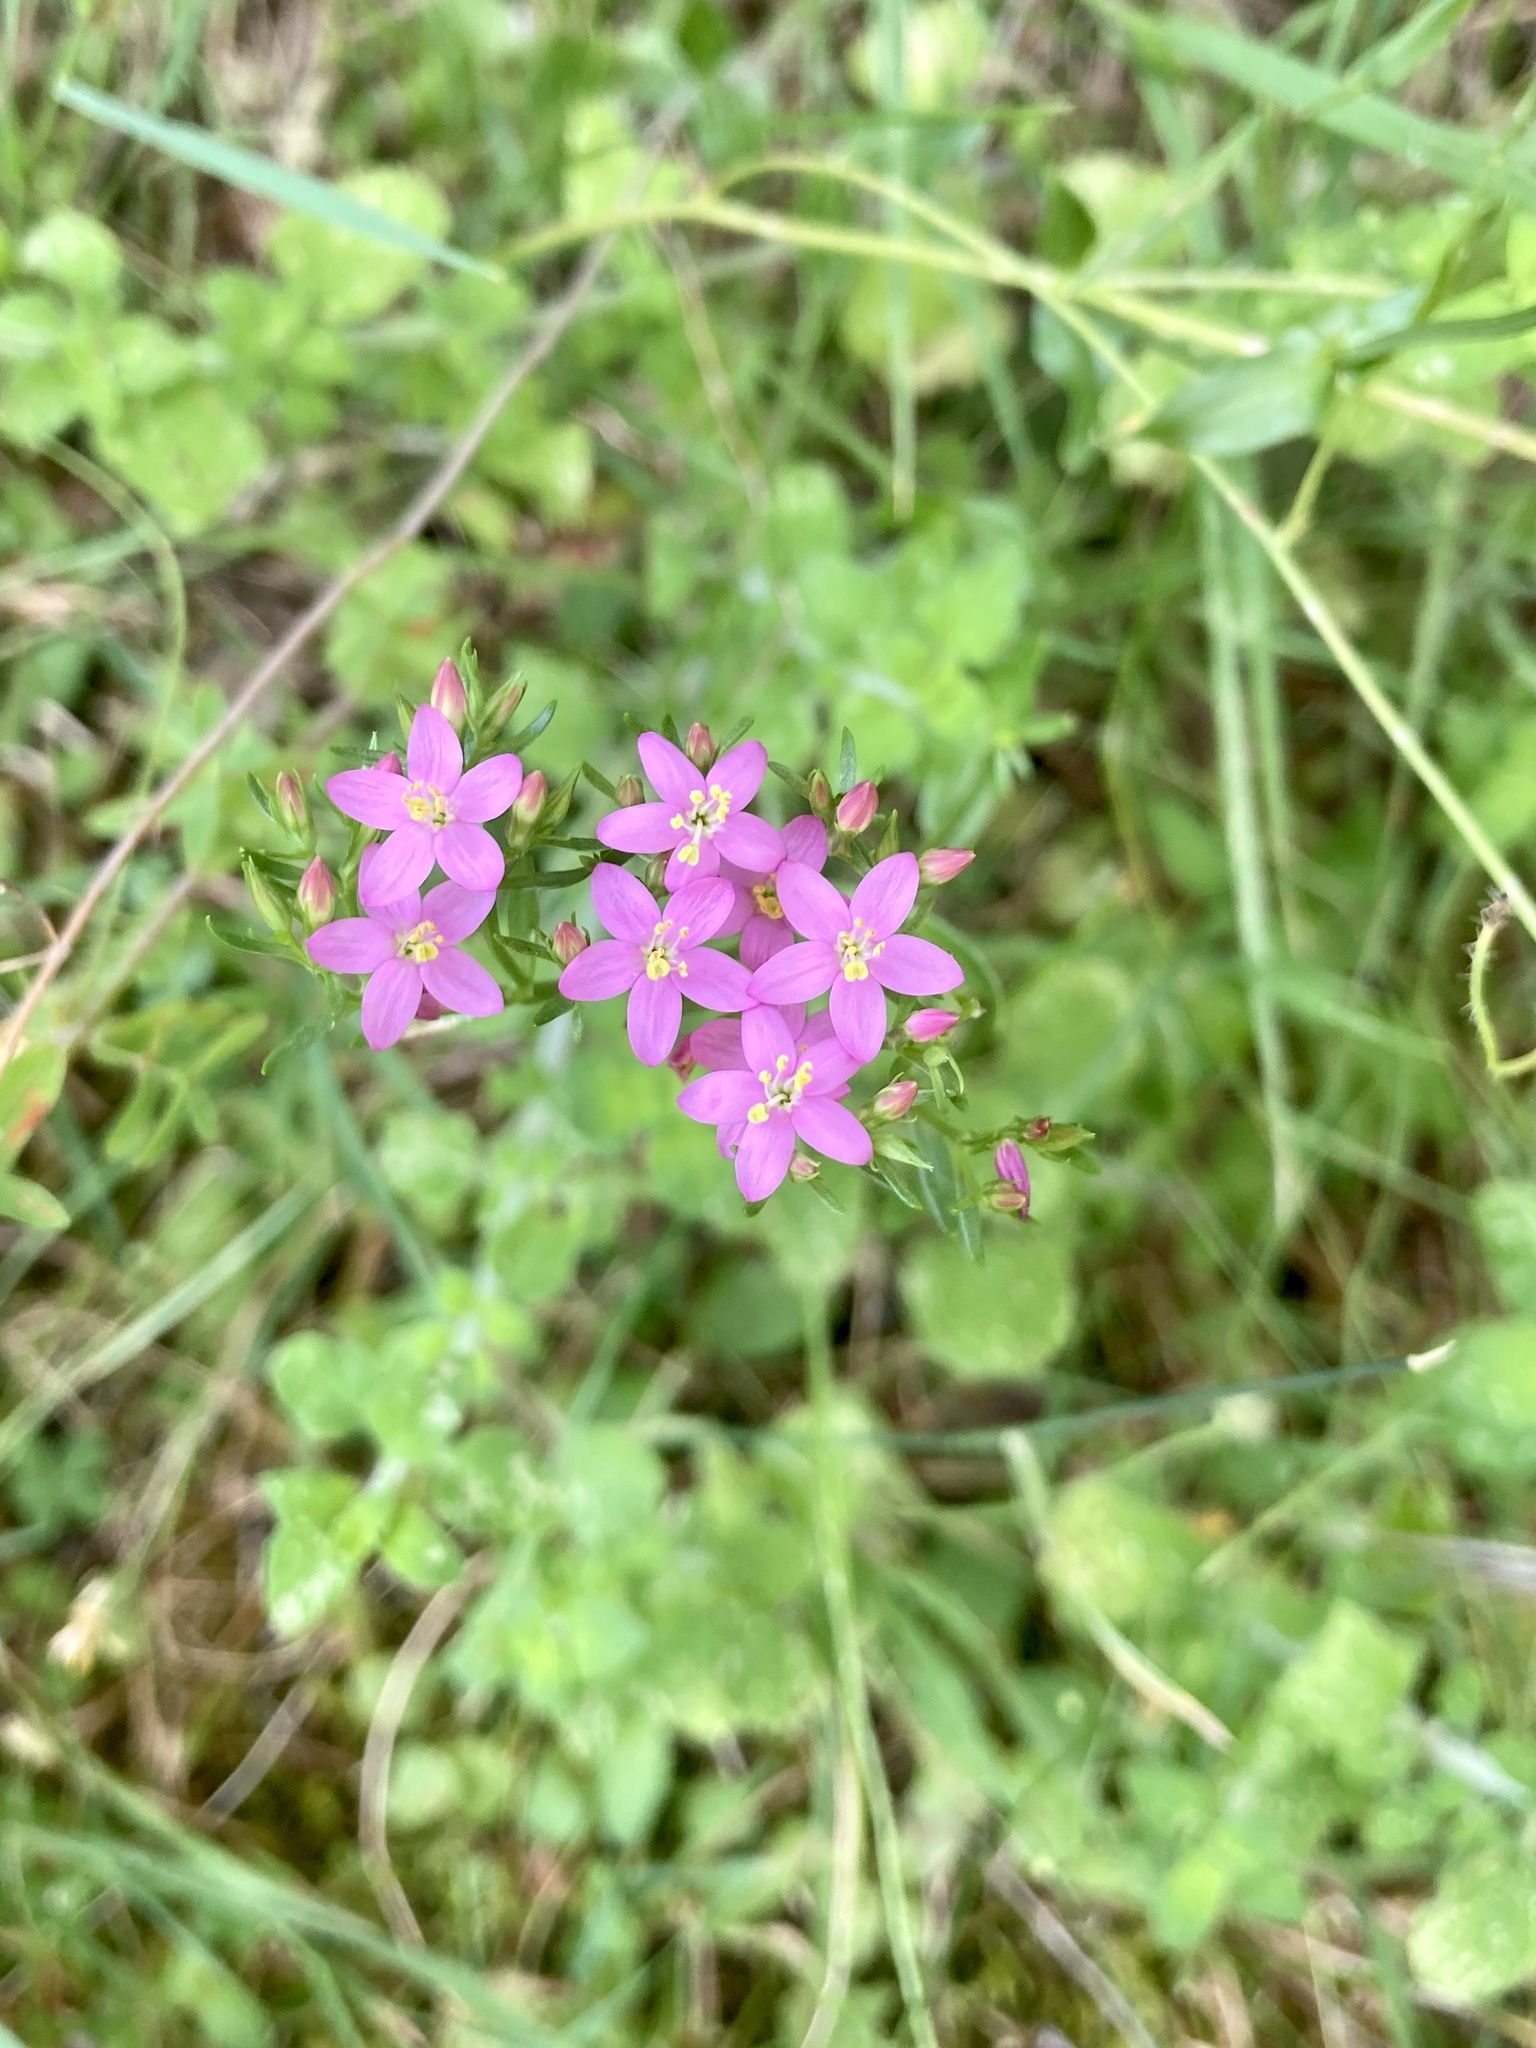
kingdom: Plantae
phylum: Tracheophyta
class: Magnoliopsida
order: Gentianales
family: Gentianaceae
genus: Centaurium
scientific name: Centaurium erythraea
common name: Common centaury
